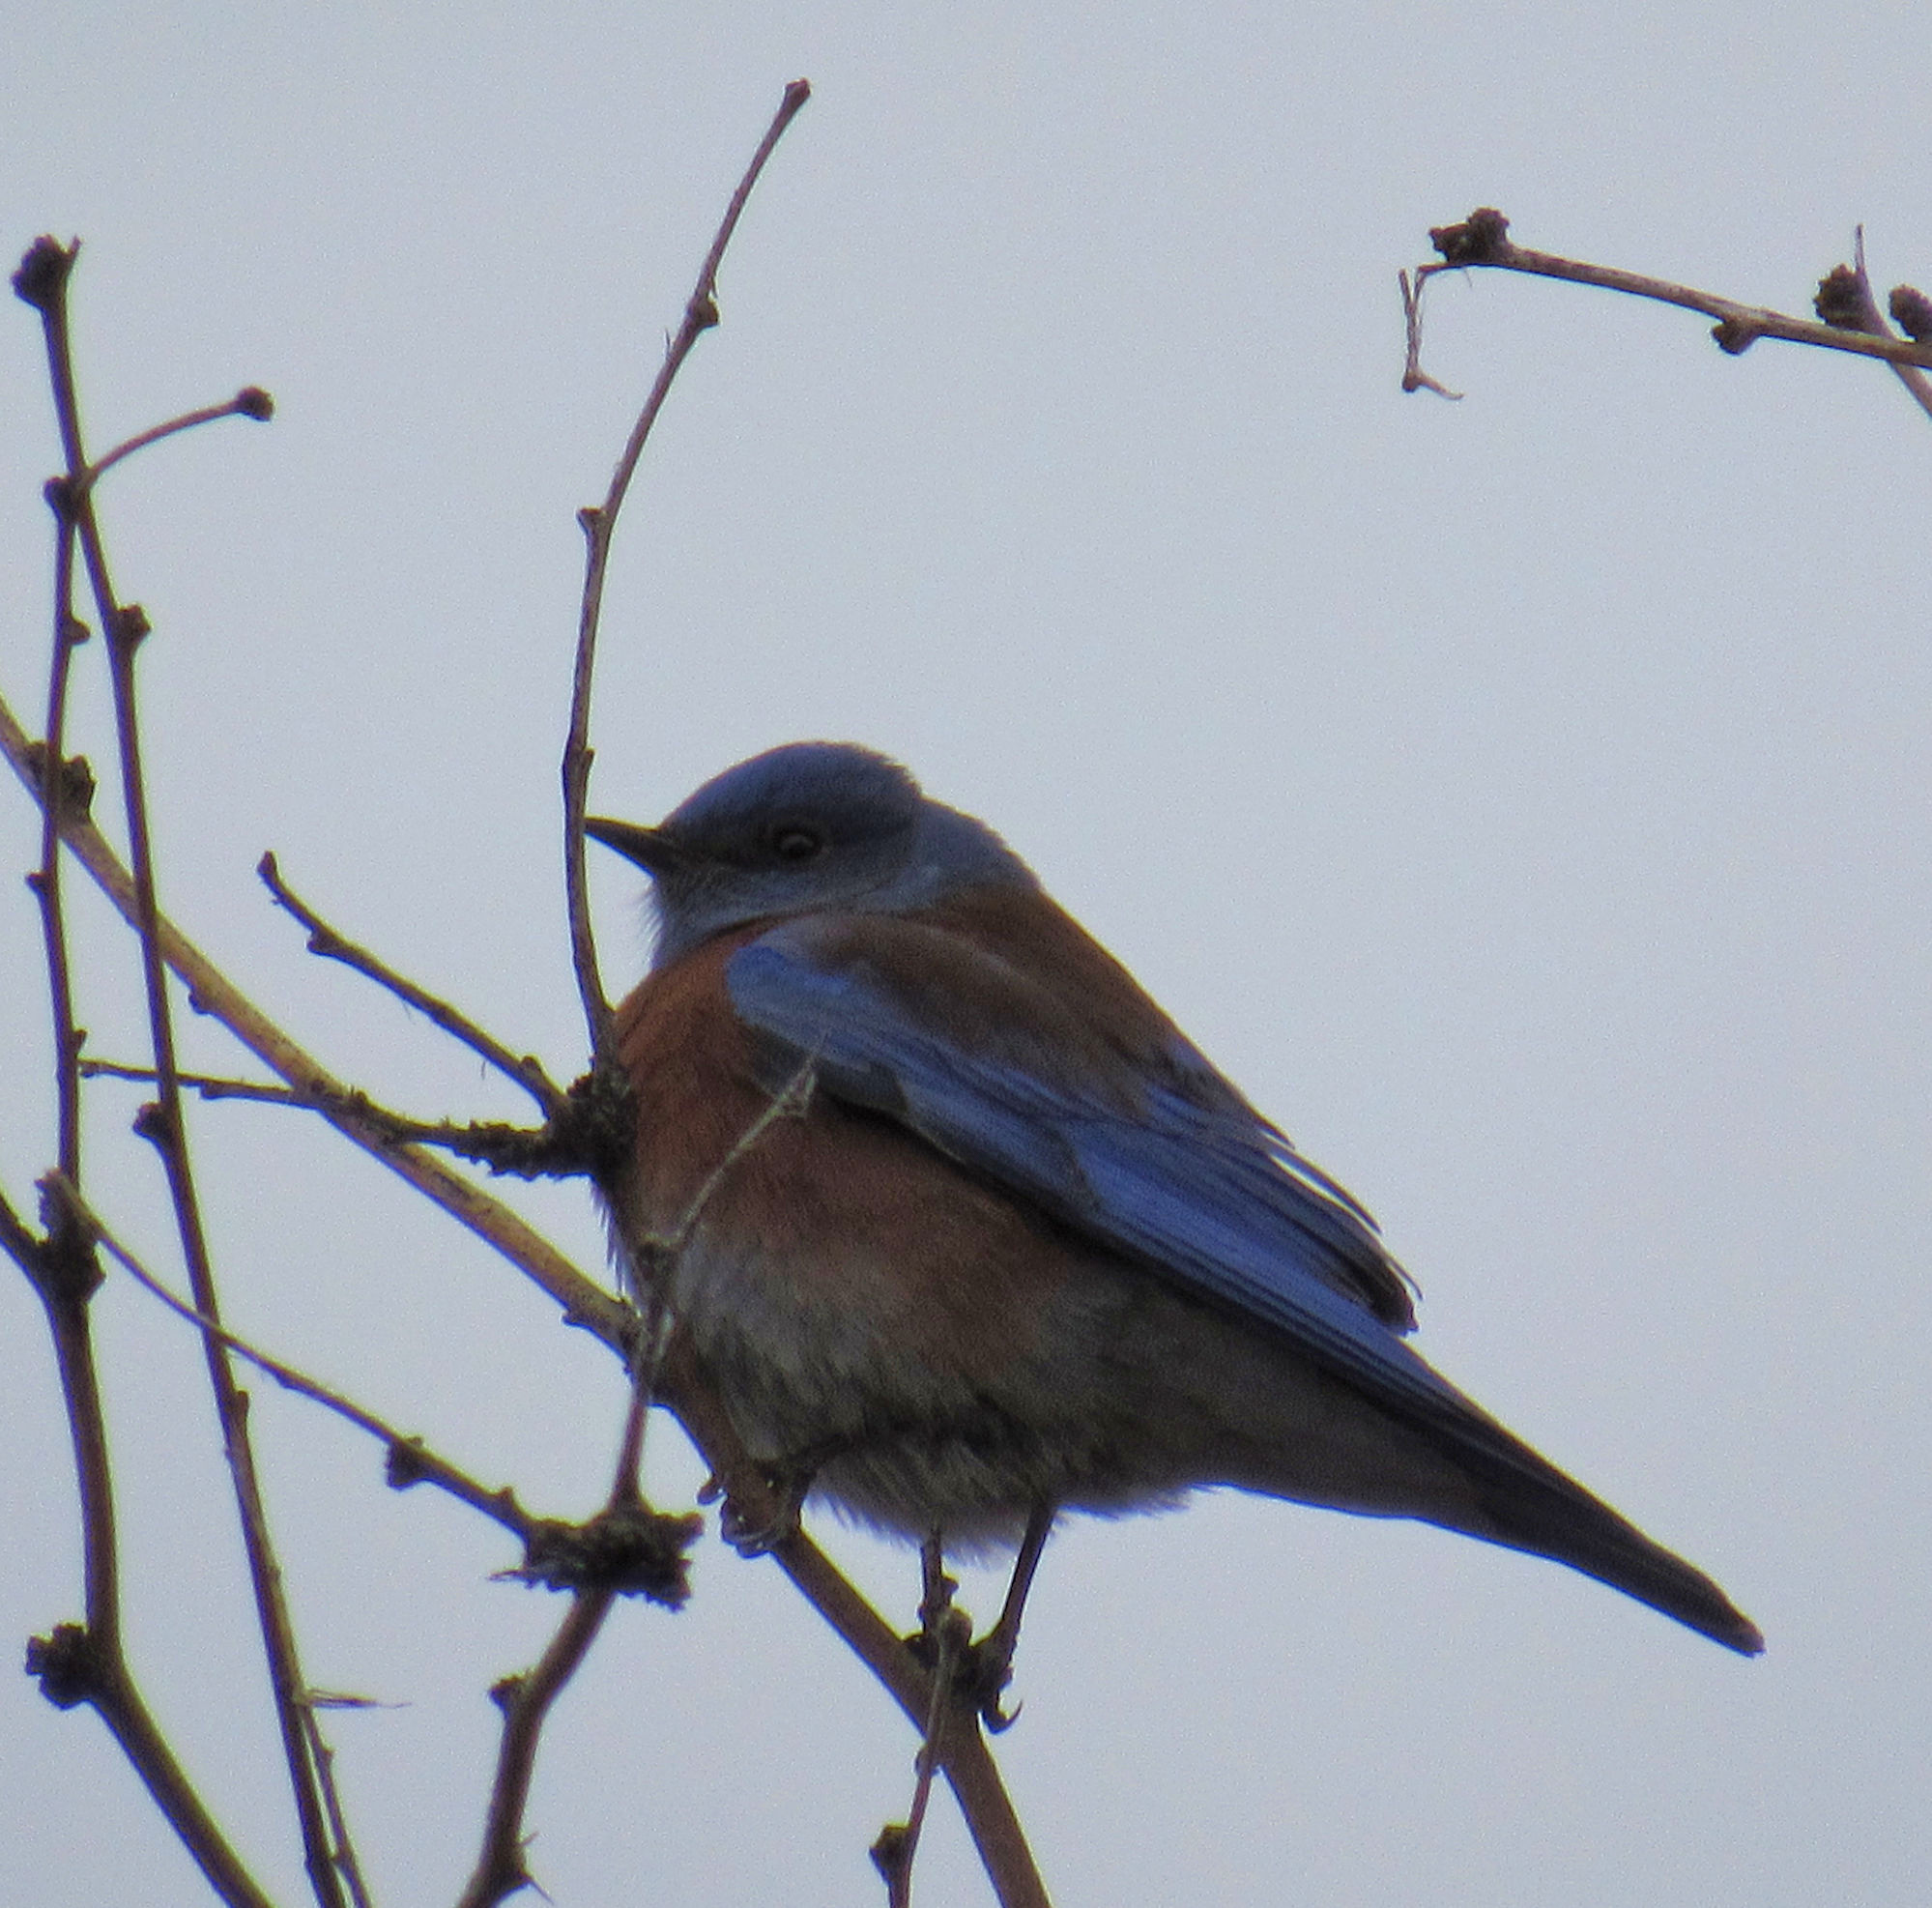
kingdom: Animalia
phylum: Chordata
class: Aves
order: Passeriformes
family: Turdidae
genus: Sialia
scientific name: Sialia mexicana
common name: Western bluebird
